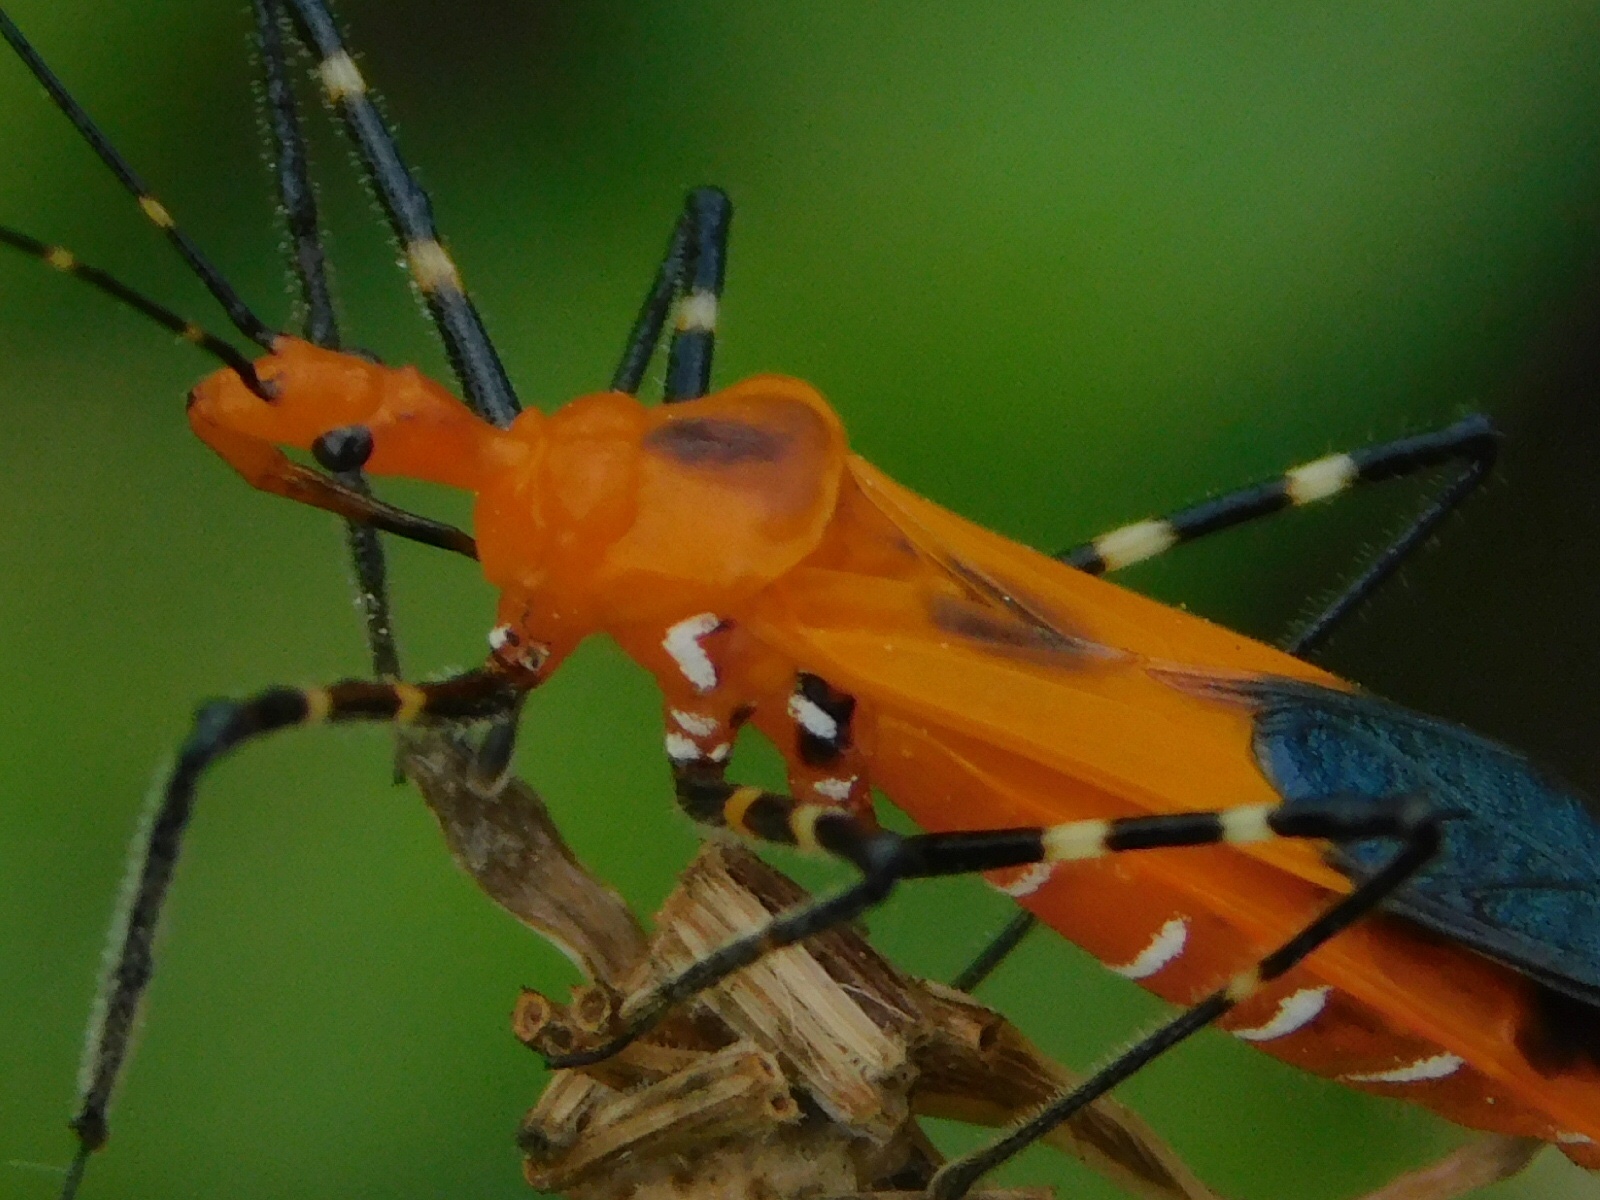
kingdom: Animalia
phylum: Arthropoda
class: Insecta
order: Hemiptera
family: Reduviidae
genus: Zelus
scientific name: Zelus longipes
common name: Milkweed assassin bug
